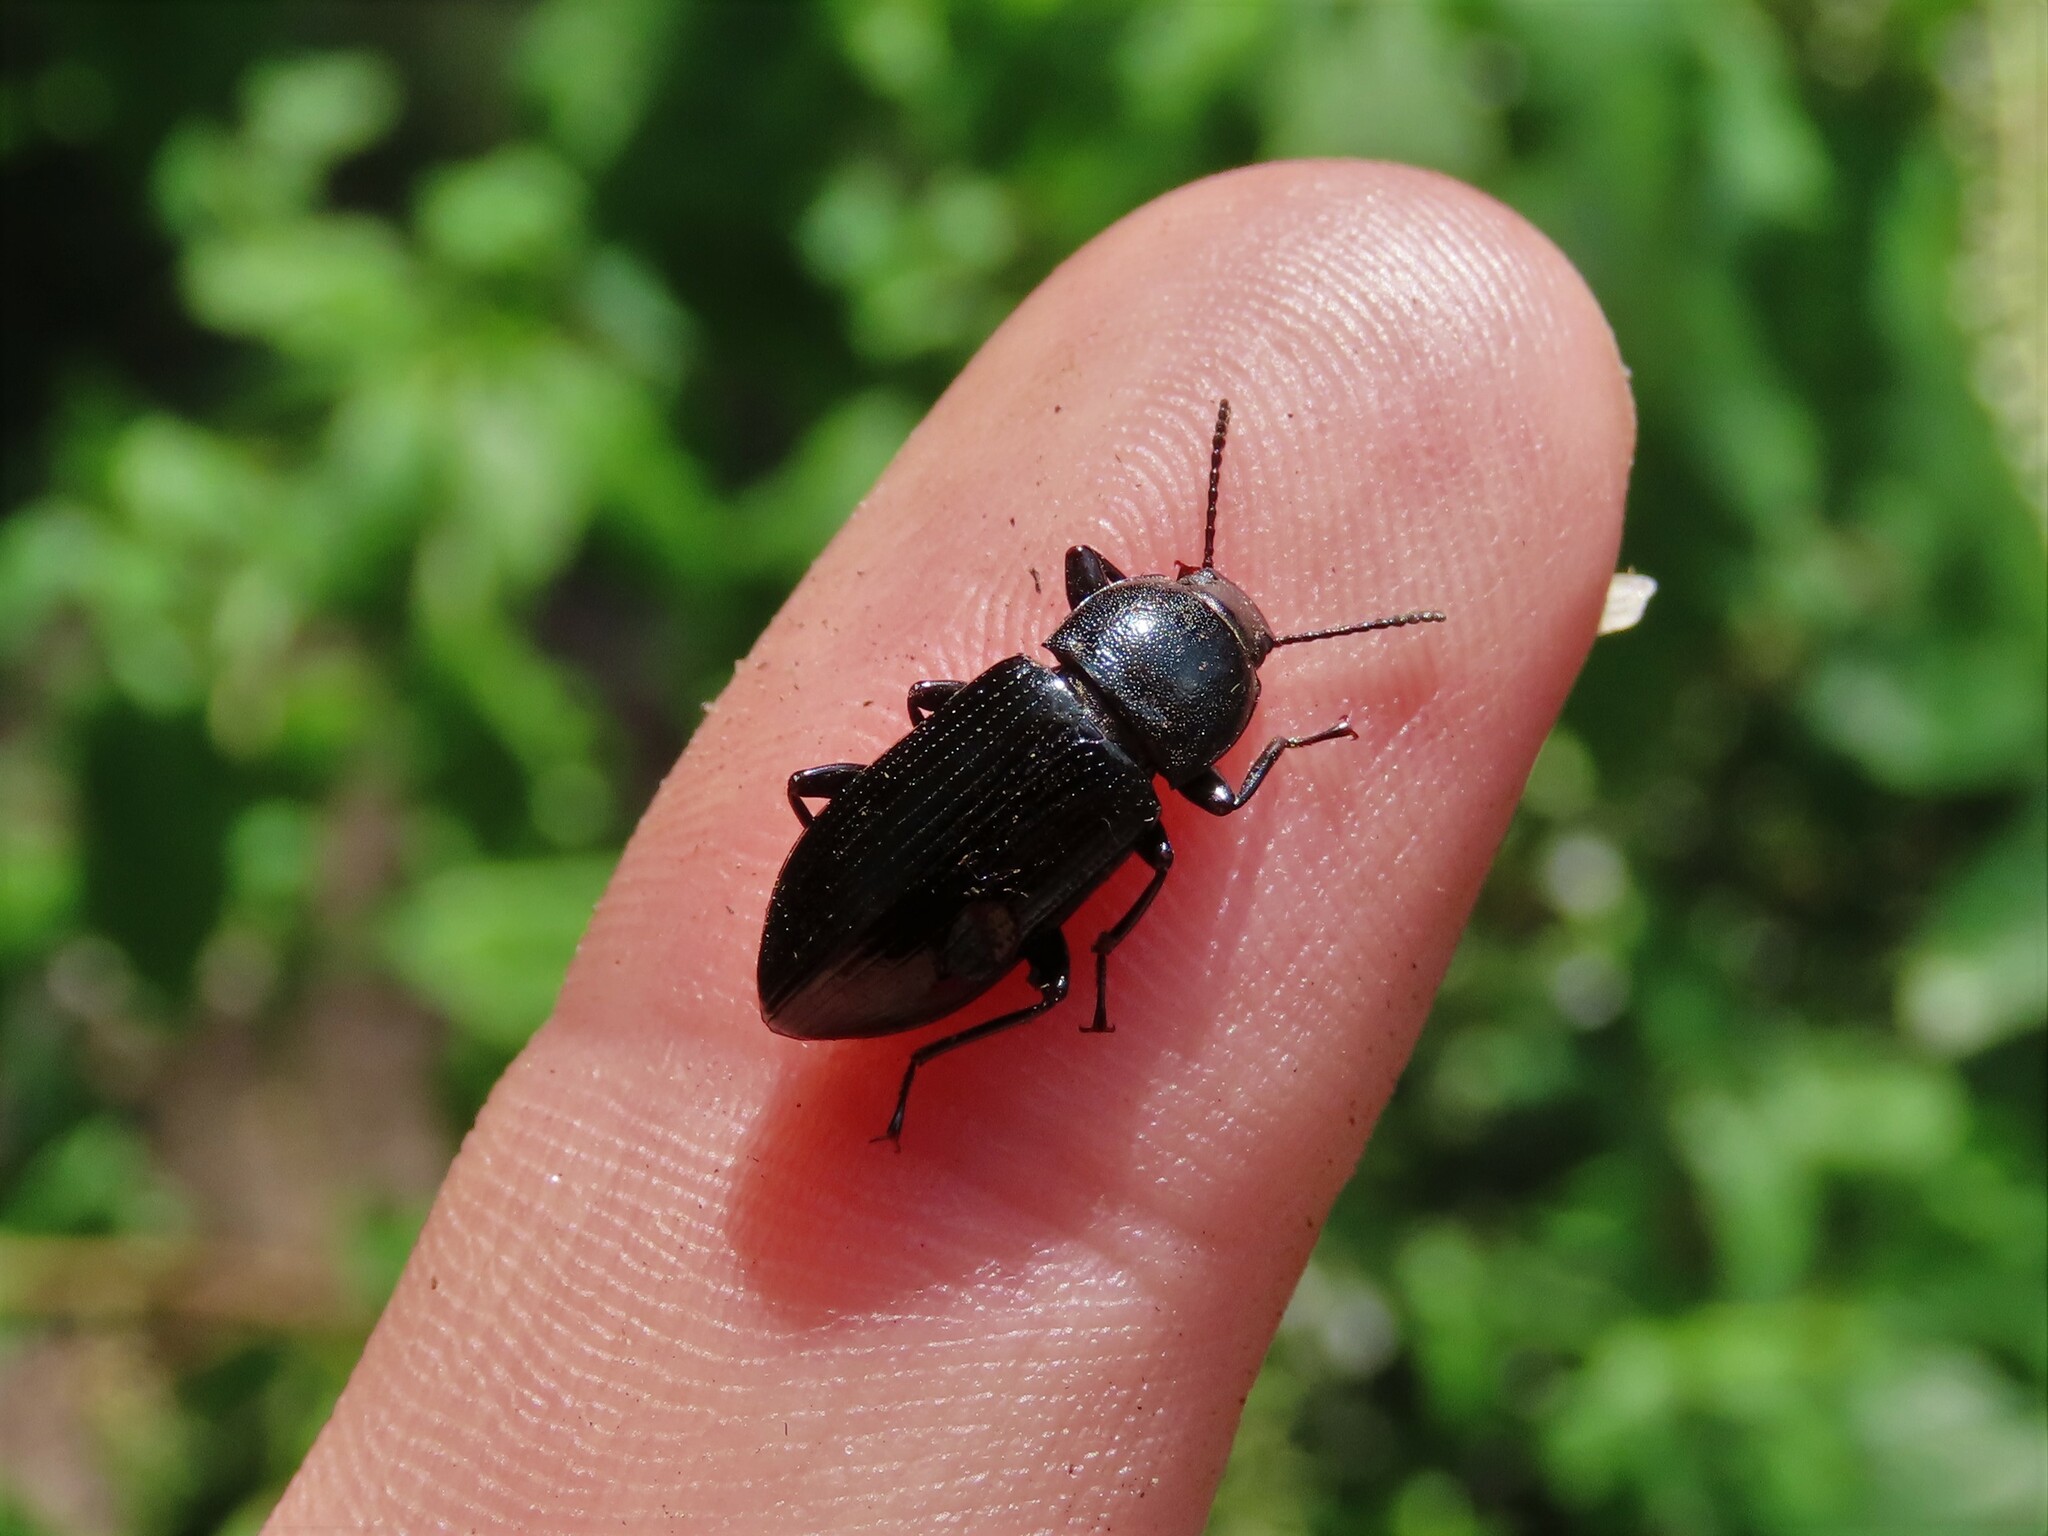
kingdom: Animalia
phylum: Arthropoda
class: Insecta
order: Coleoptera
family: Tenebrionidae
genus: Centronopus
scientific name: Centronopus calcaratus
